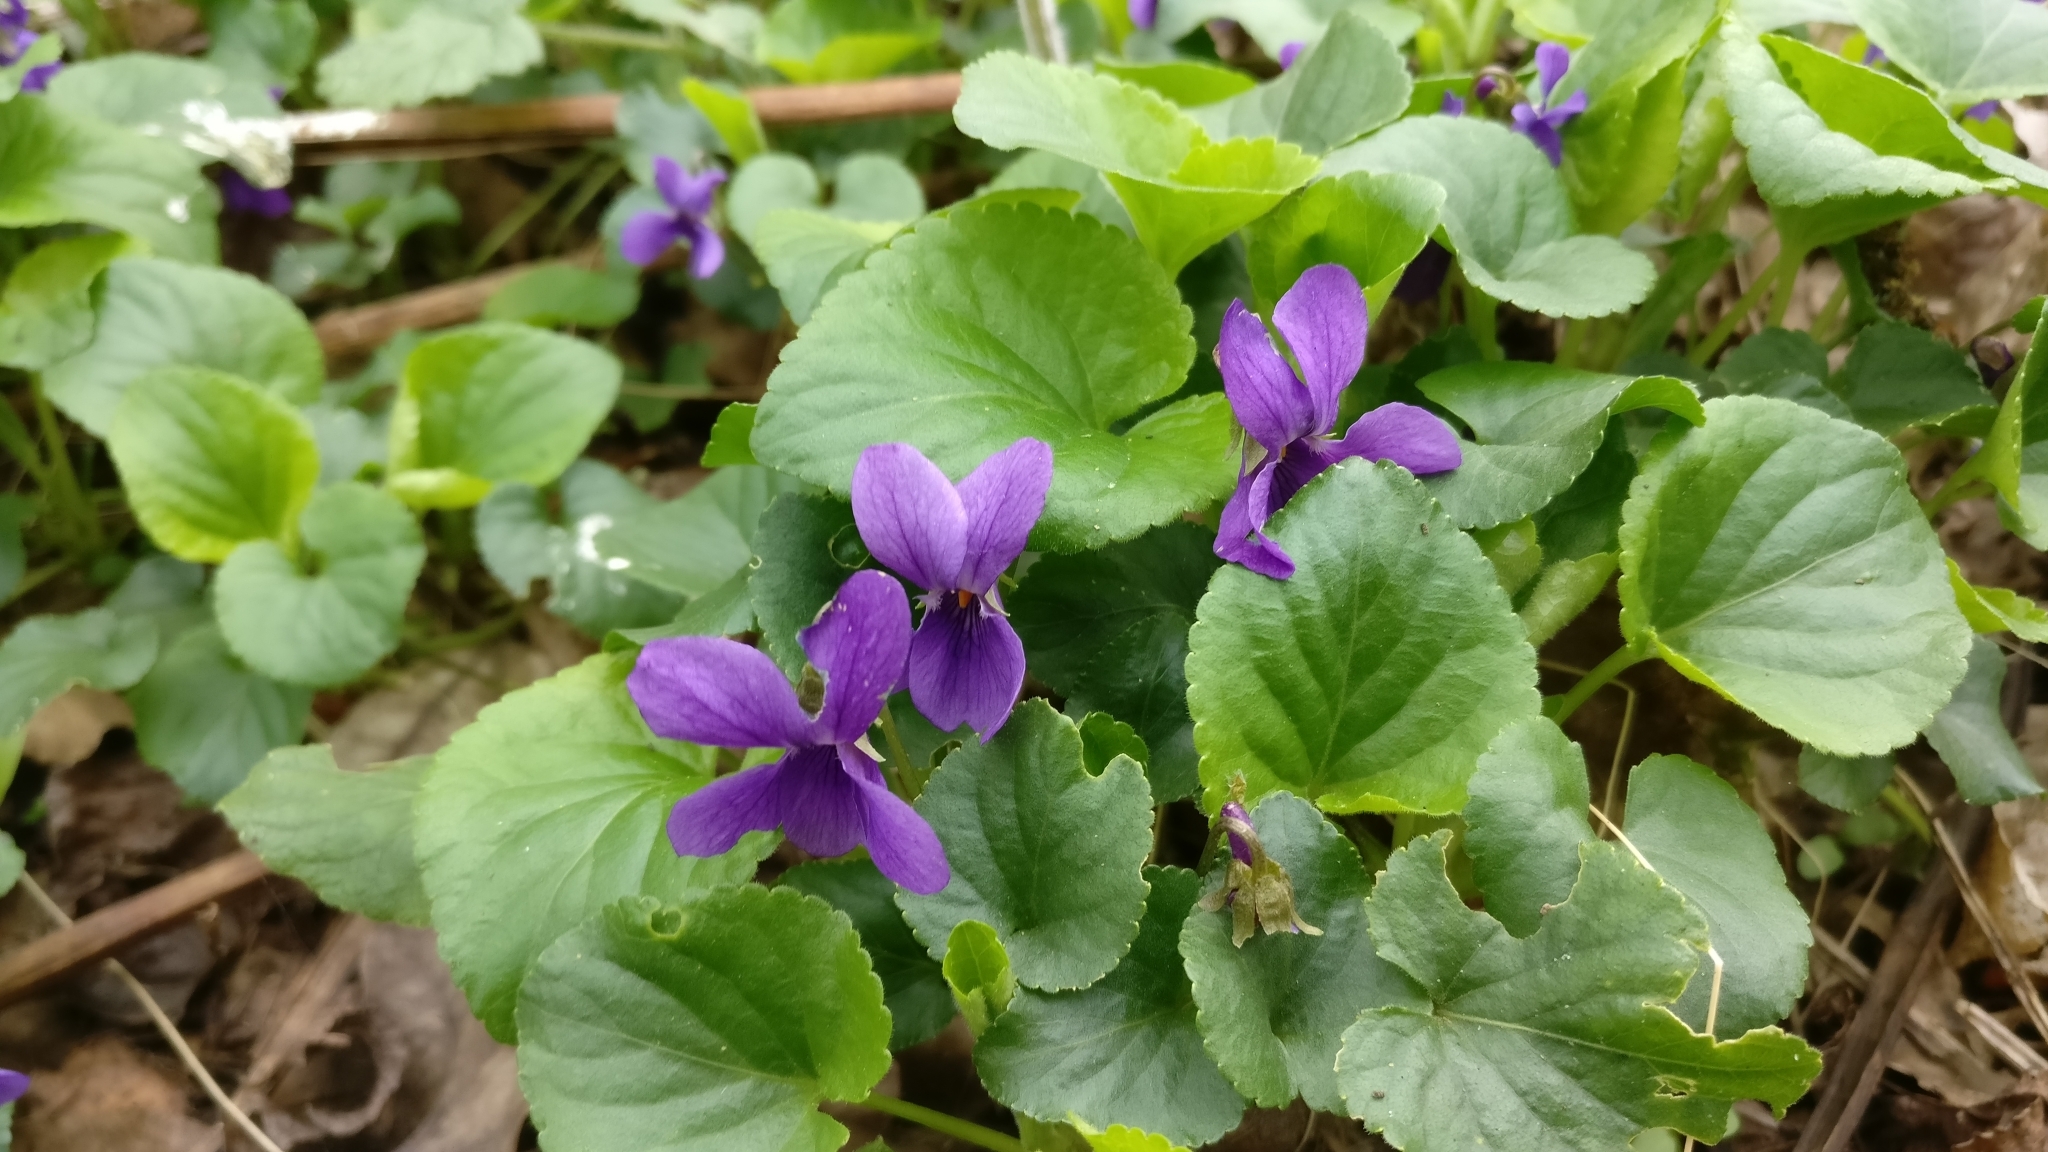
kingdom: Plantae
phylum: Tracheophyta
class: Magnoliopsida
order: Malpighiales
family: Violaceae
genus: Viola
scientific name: Viola odorata
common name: Sweet violet
